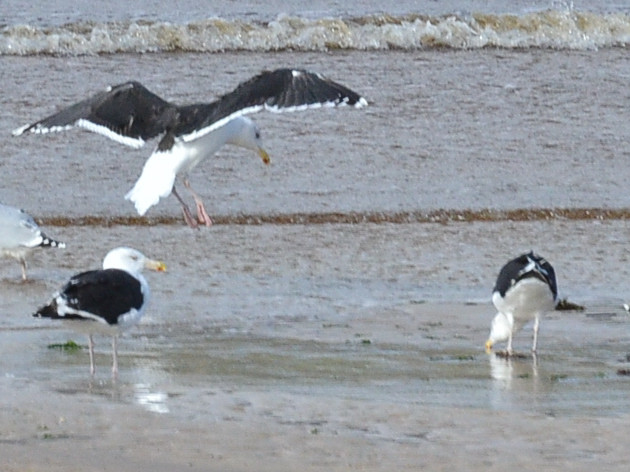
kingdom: Animalia
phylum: Chordata
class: Aves
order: Charadriiformes
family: Laridae
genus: Larus
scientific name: Larus marinus
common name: Great black-backed gull
